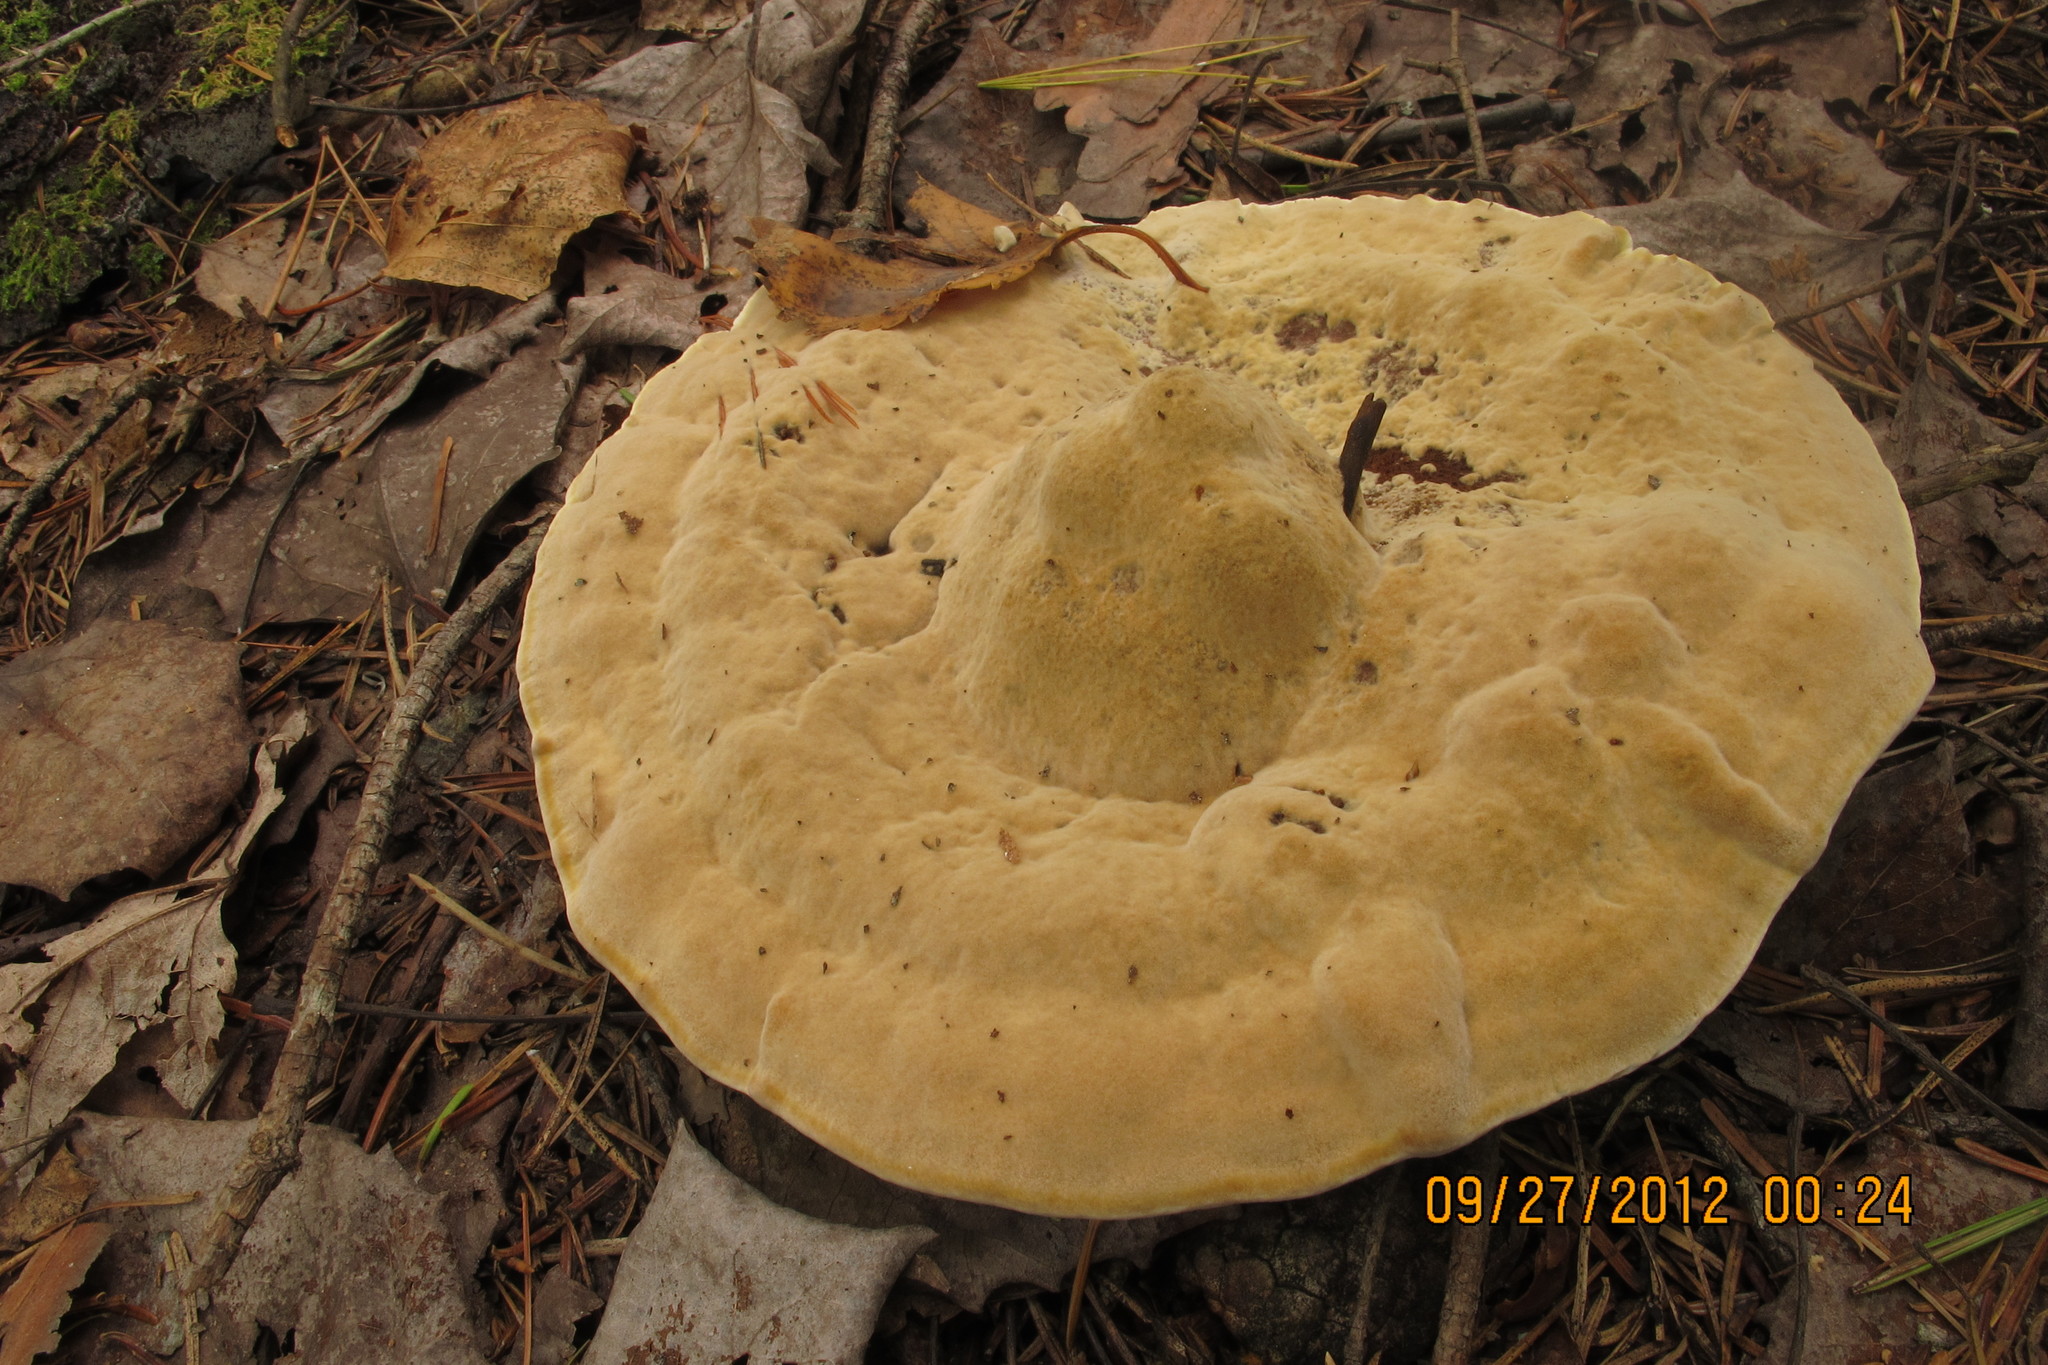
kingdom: Fungi
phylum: Basidiomycota
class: Agaricomycetes
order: Hymenochaetales
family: Hymenochaetaceae
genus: Onnia
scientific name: Onnia tomentosa
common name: Velvet rosette
